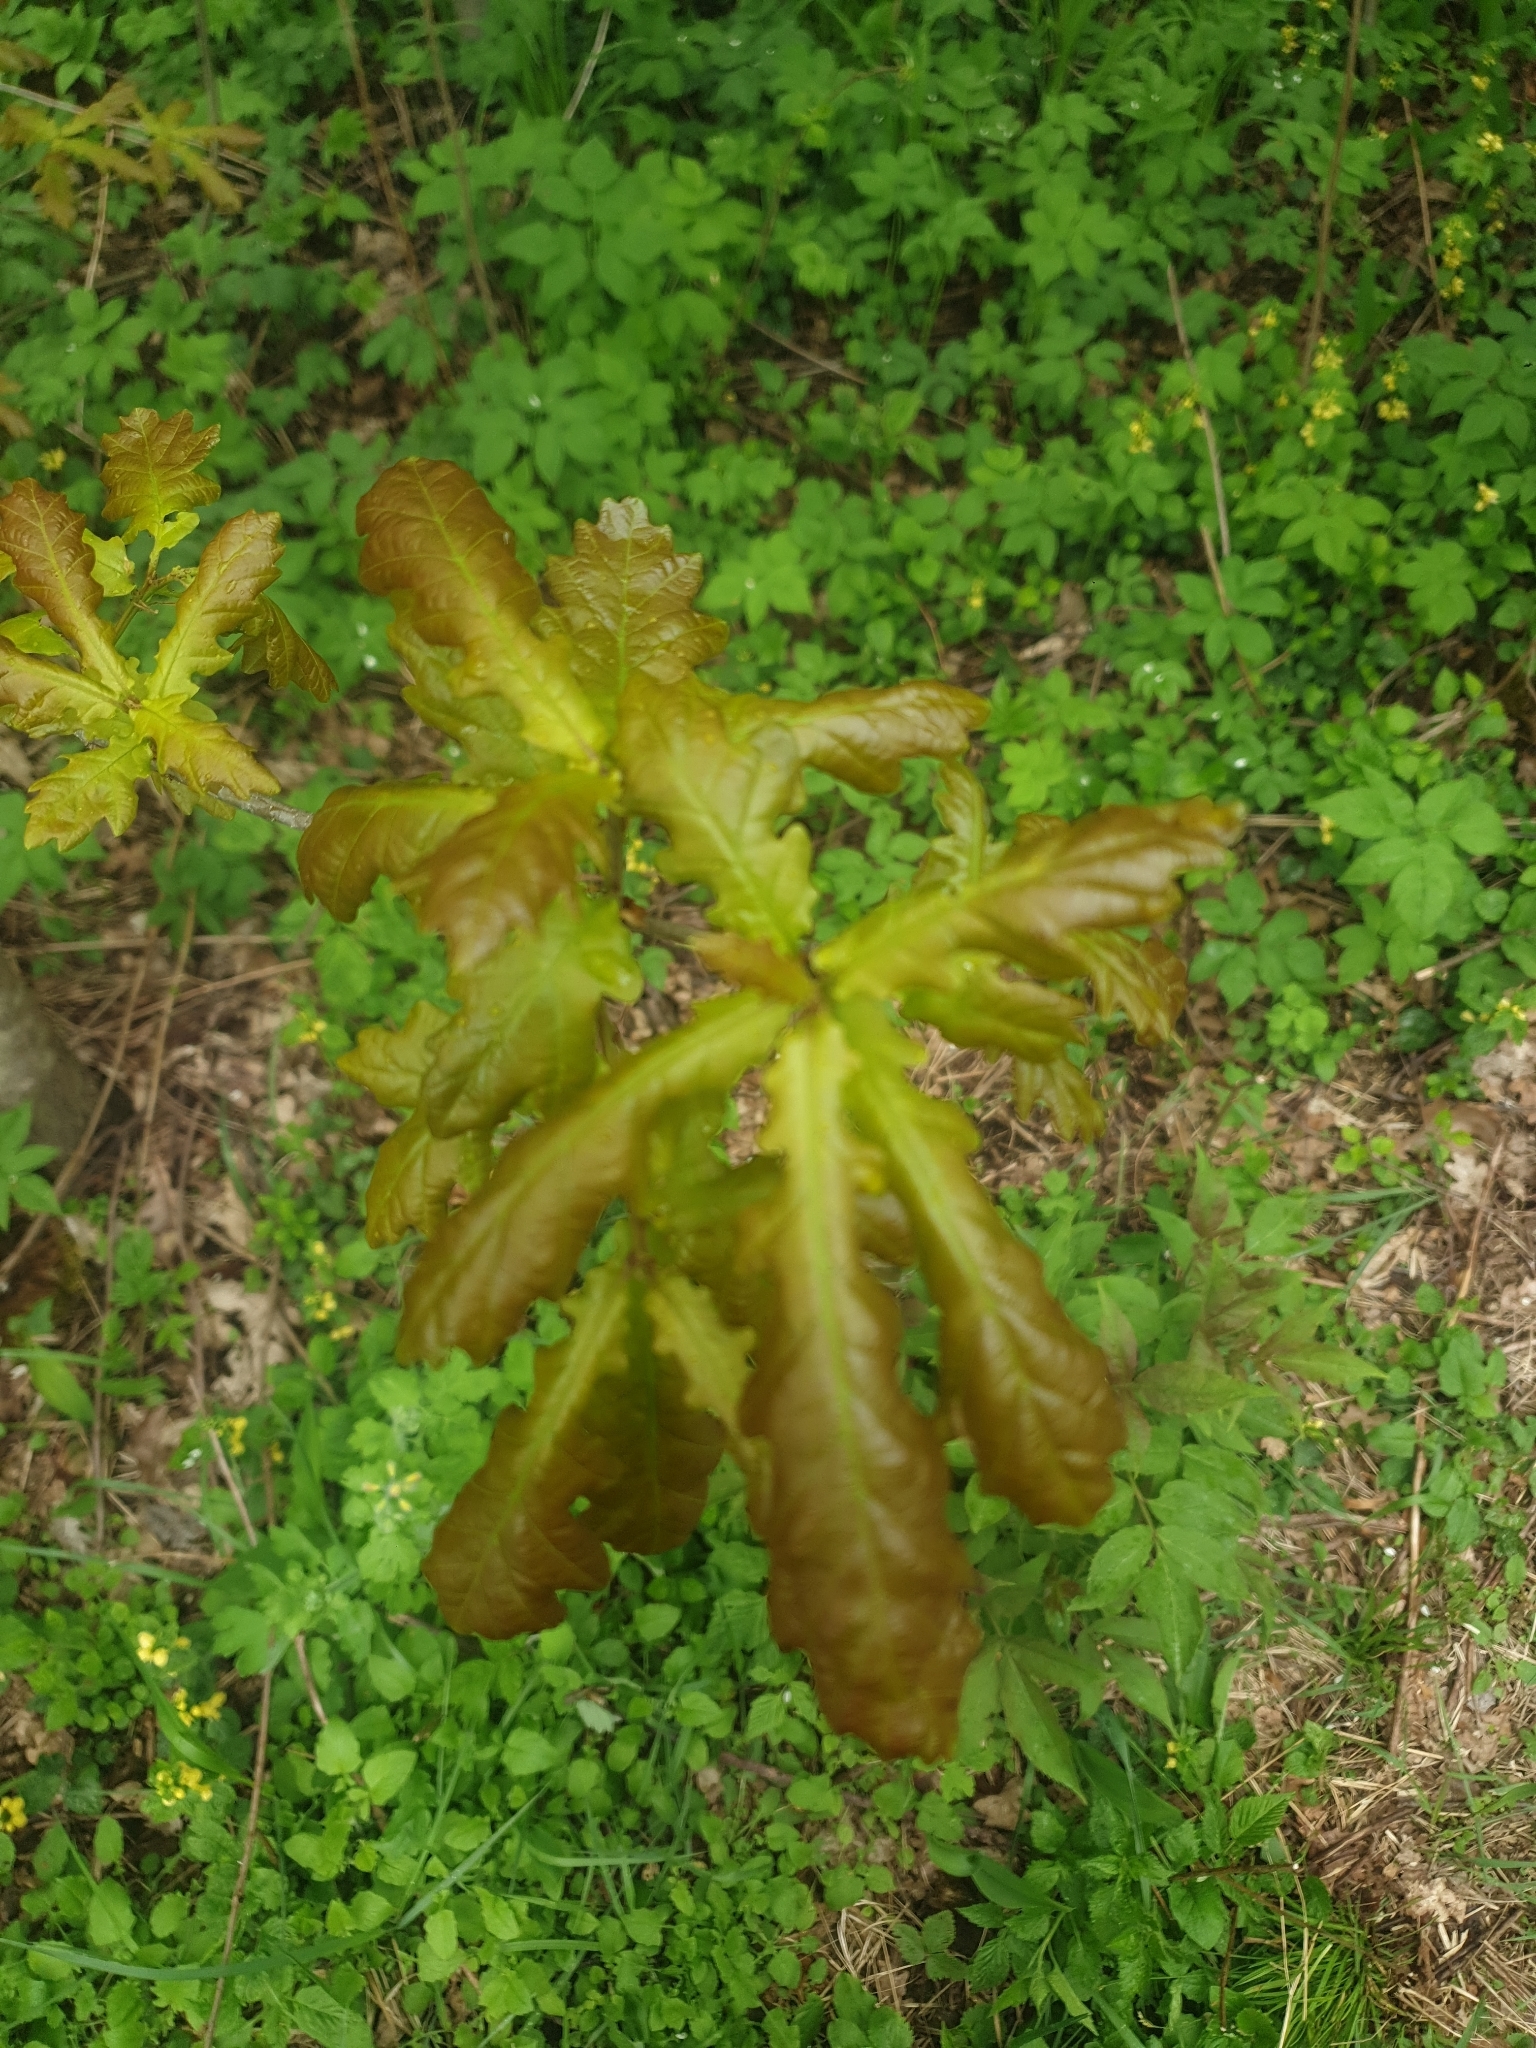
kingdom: Plantae
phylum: Tracheophyta
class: Magnoliopsida
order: Fagales
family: Fagaceae
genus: Quercus
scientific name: Quercus robur
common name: Pedunculate oak
